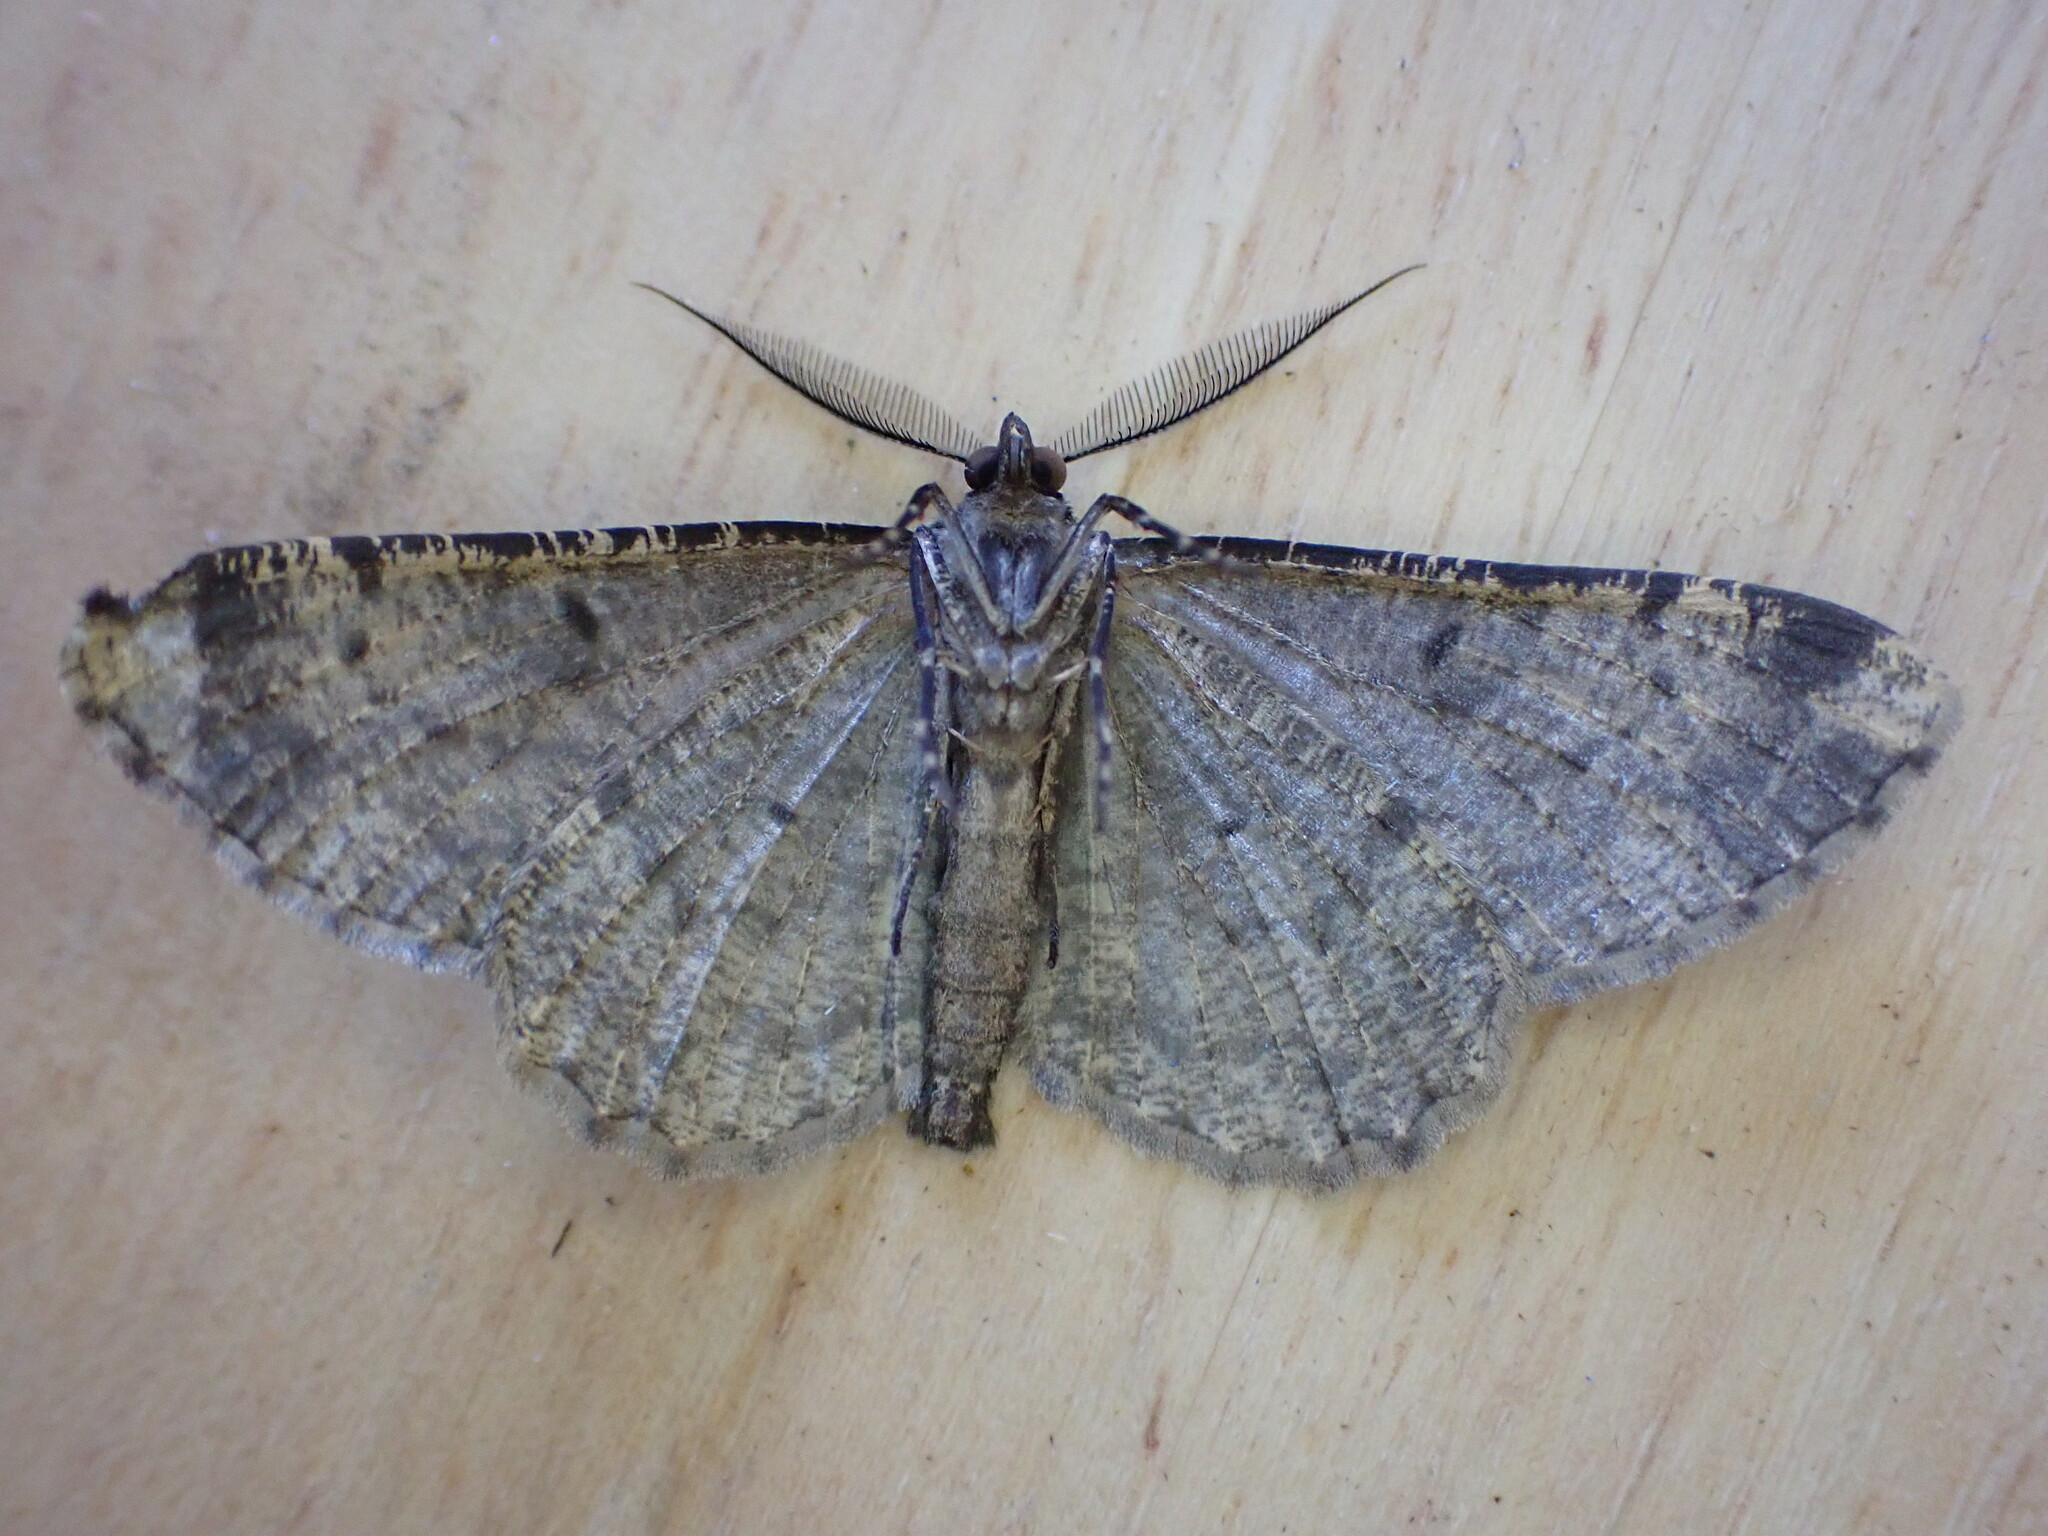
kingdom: Animalia
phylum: Arthropoda
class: Insecta
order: Lepidoptera
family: Geometridae
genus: Peribatodes
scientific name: Peribatodes rhomboidaria
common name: Willow beauty
